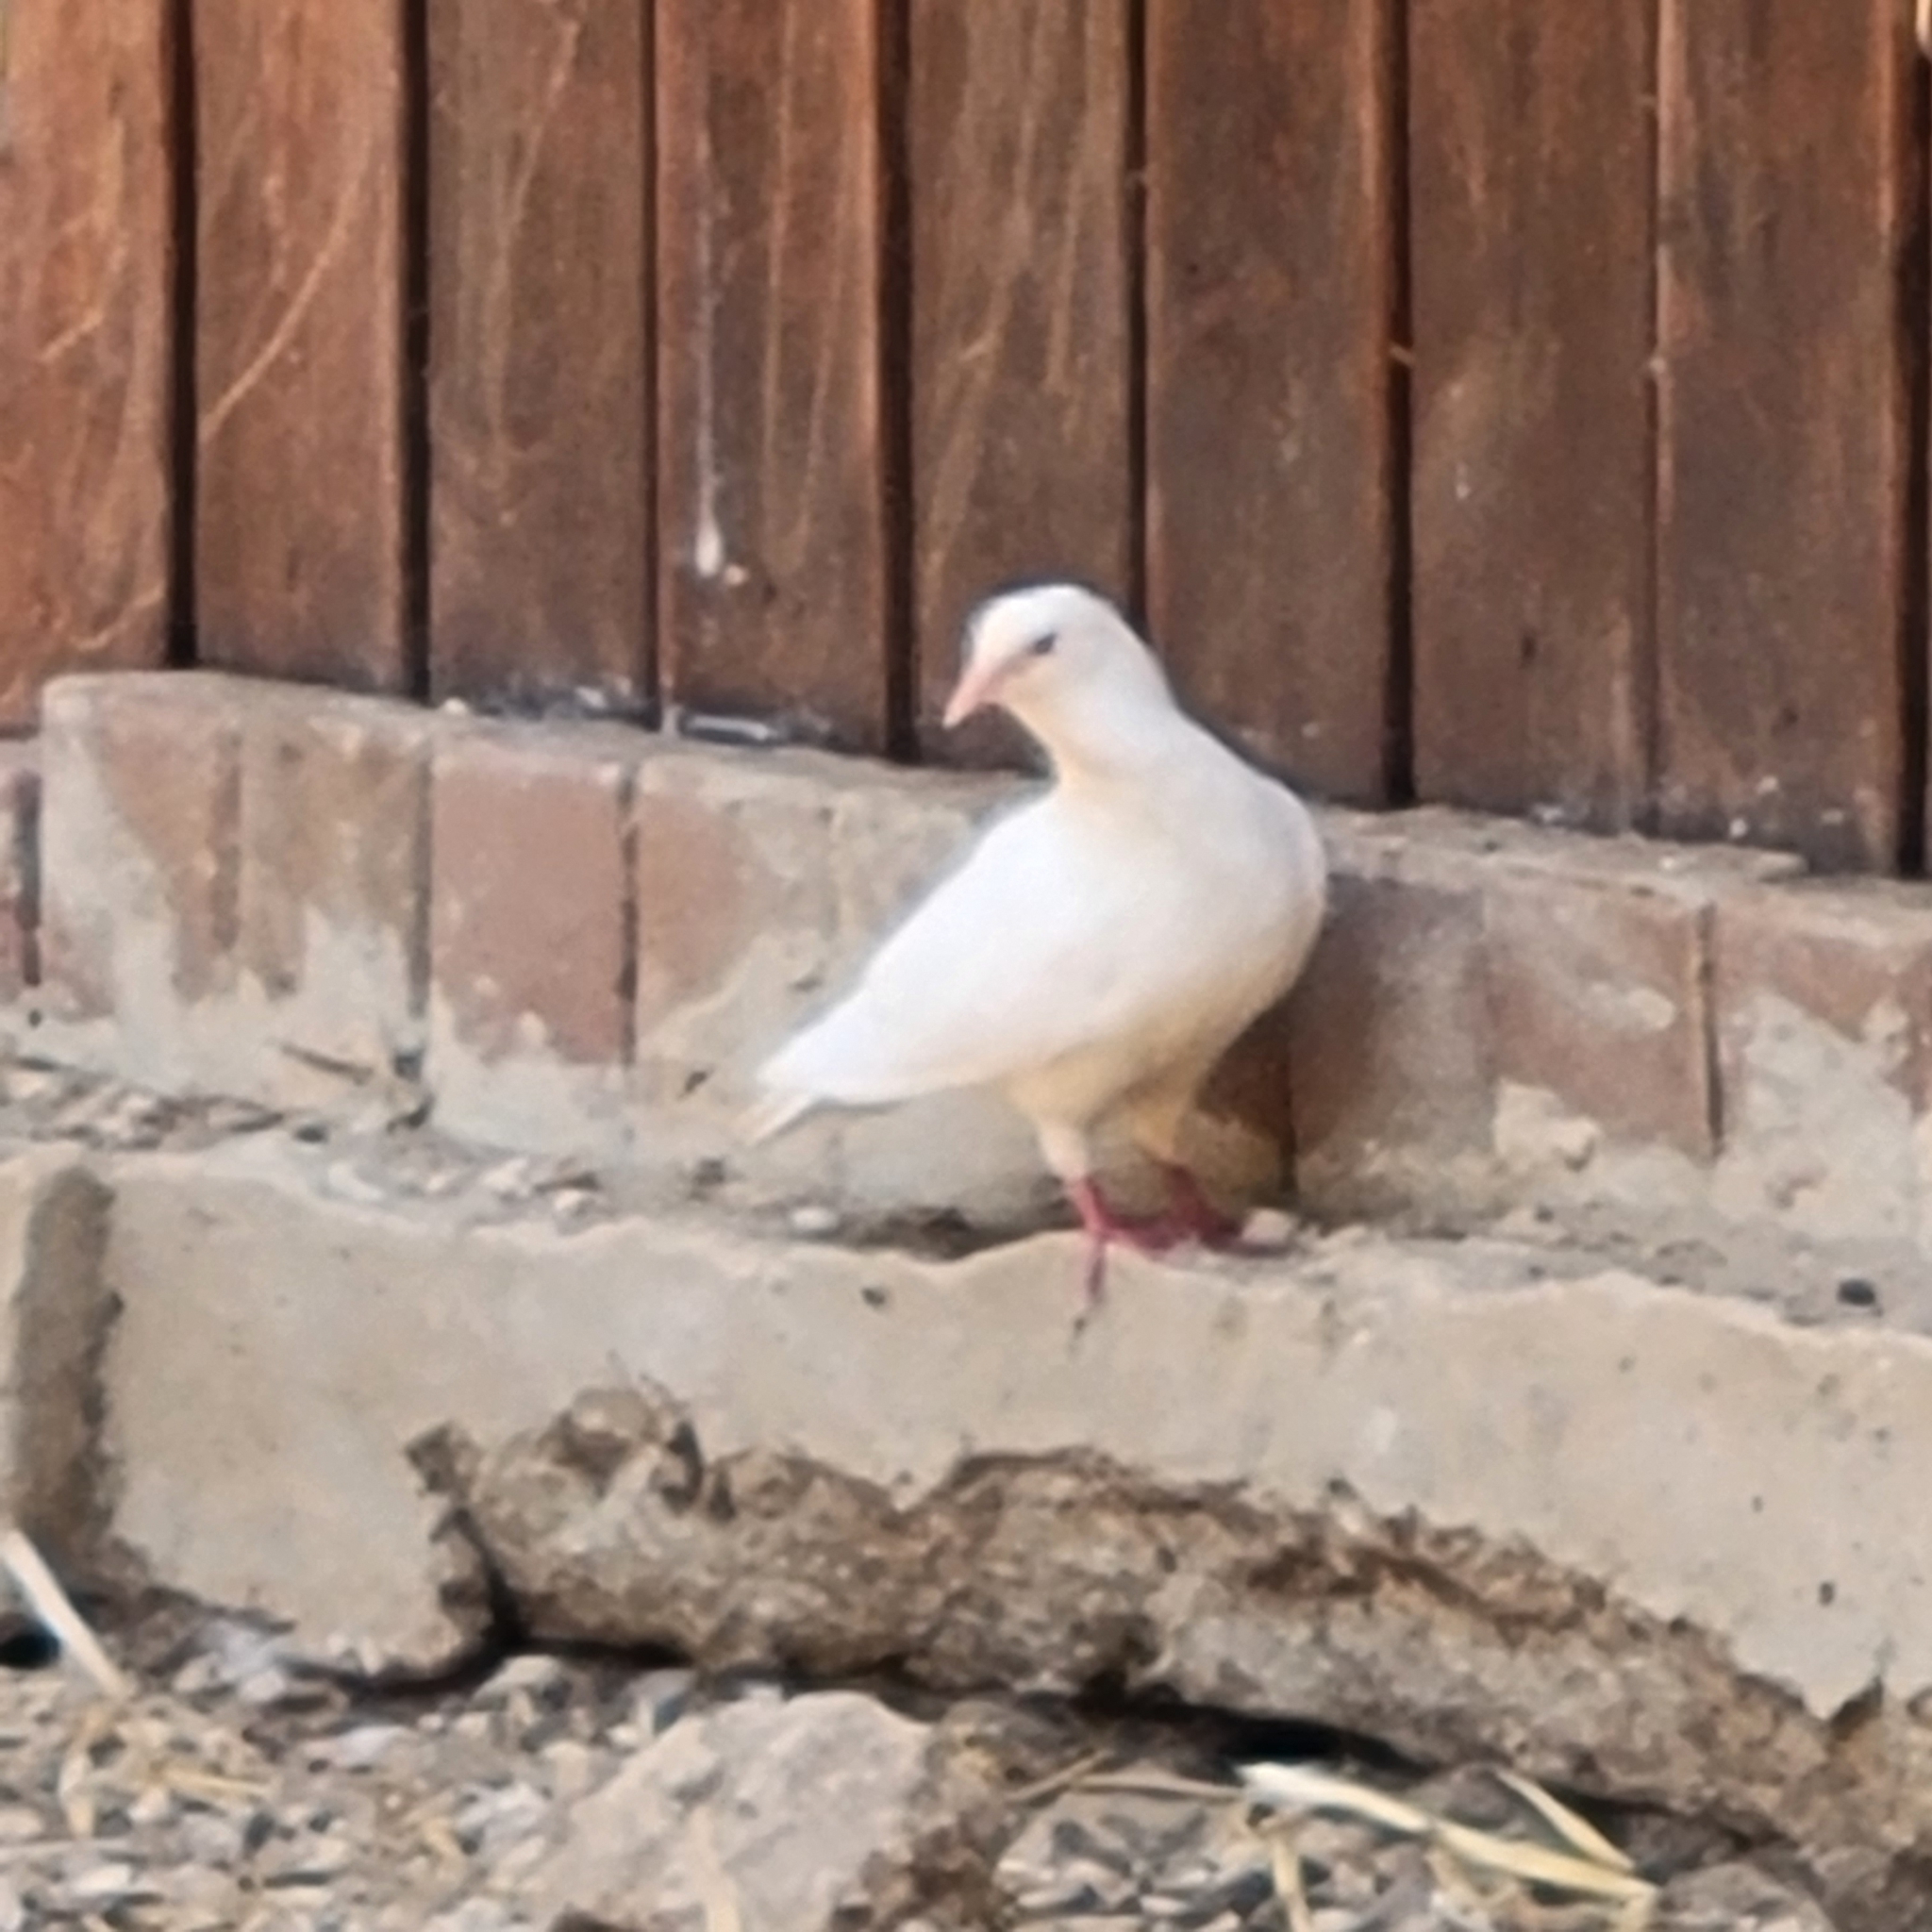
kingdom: Animalia
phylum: Chordata
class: Aves
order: Columbiformes
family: Columbidae
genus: Columba
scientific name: Columba livia
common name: Rock pigeon
